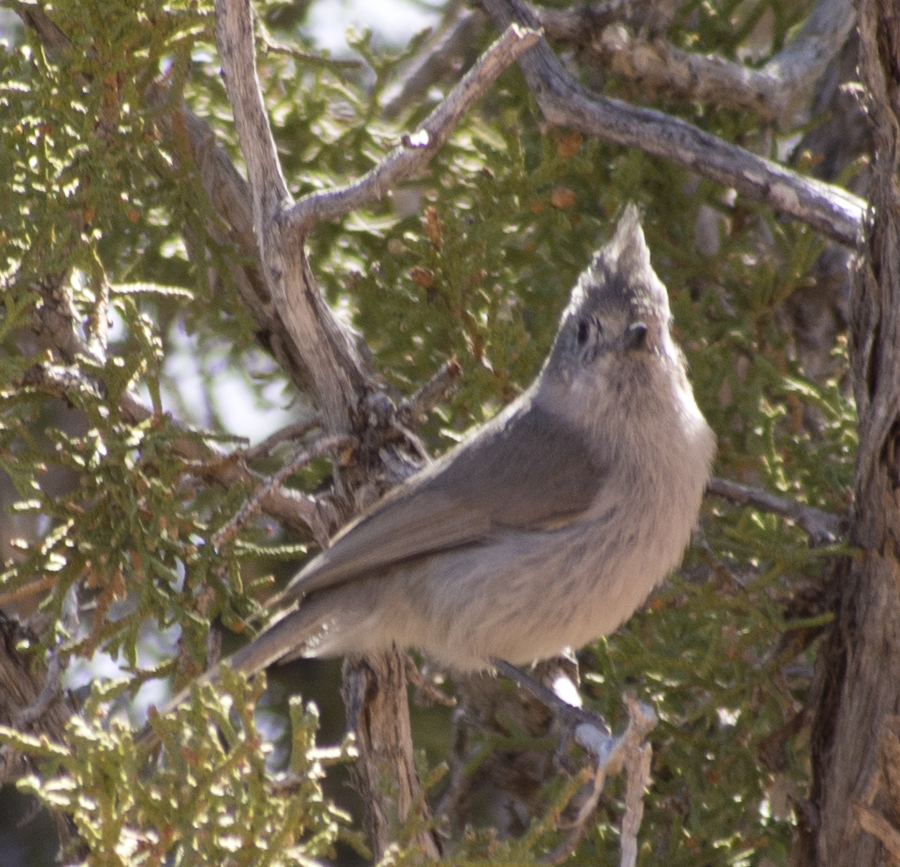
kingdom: Animalia
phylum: Chordata
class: Aves
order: Passeriformes
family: Paridae
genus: Baeolophus
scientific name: Baeolophus ridgwayi
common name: Juniper titmouse
